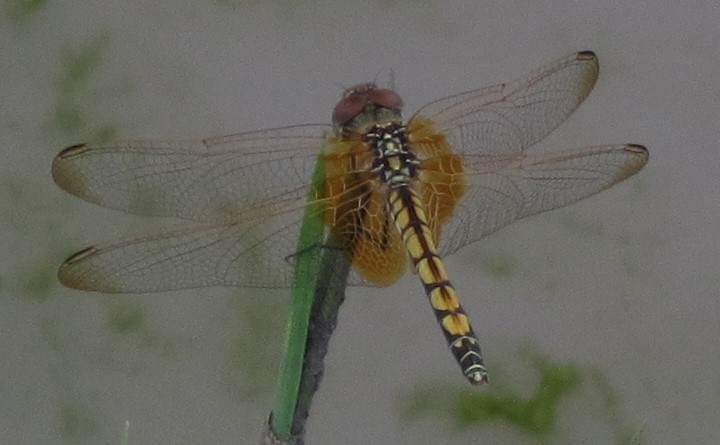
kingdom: Animalia
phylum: Arthropoda
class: Insecta
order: Odonata
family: Libellulidae
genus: Trithemis
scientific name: Trithemis monardi
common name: Monard's dropwing
